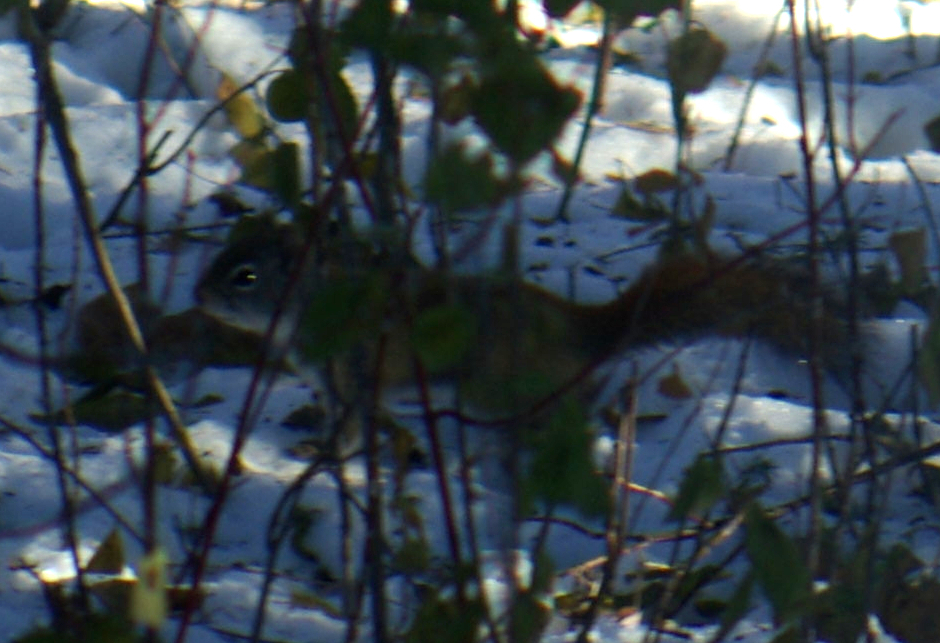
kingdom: Animalia
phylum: Chordata
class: Mammalia
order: Rodentia
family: Sciuridae
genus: Tamiasciurus
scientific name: Tamiasciurus hudsonicus
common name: Red squirrel
